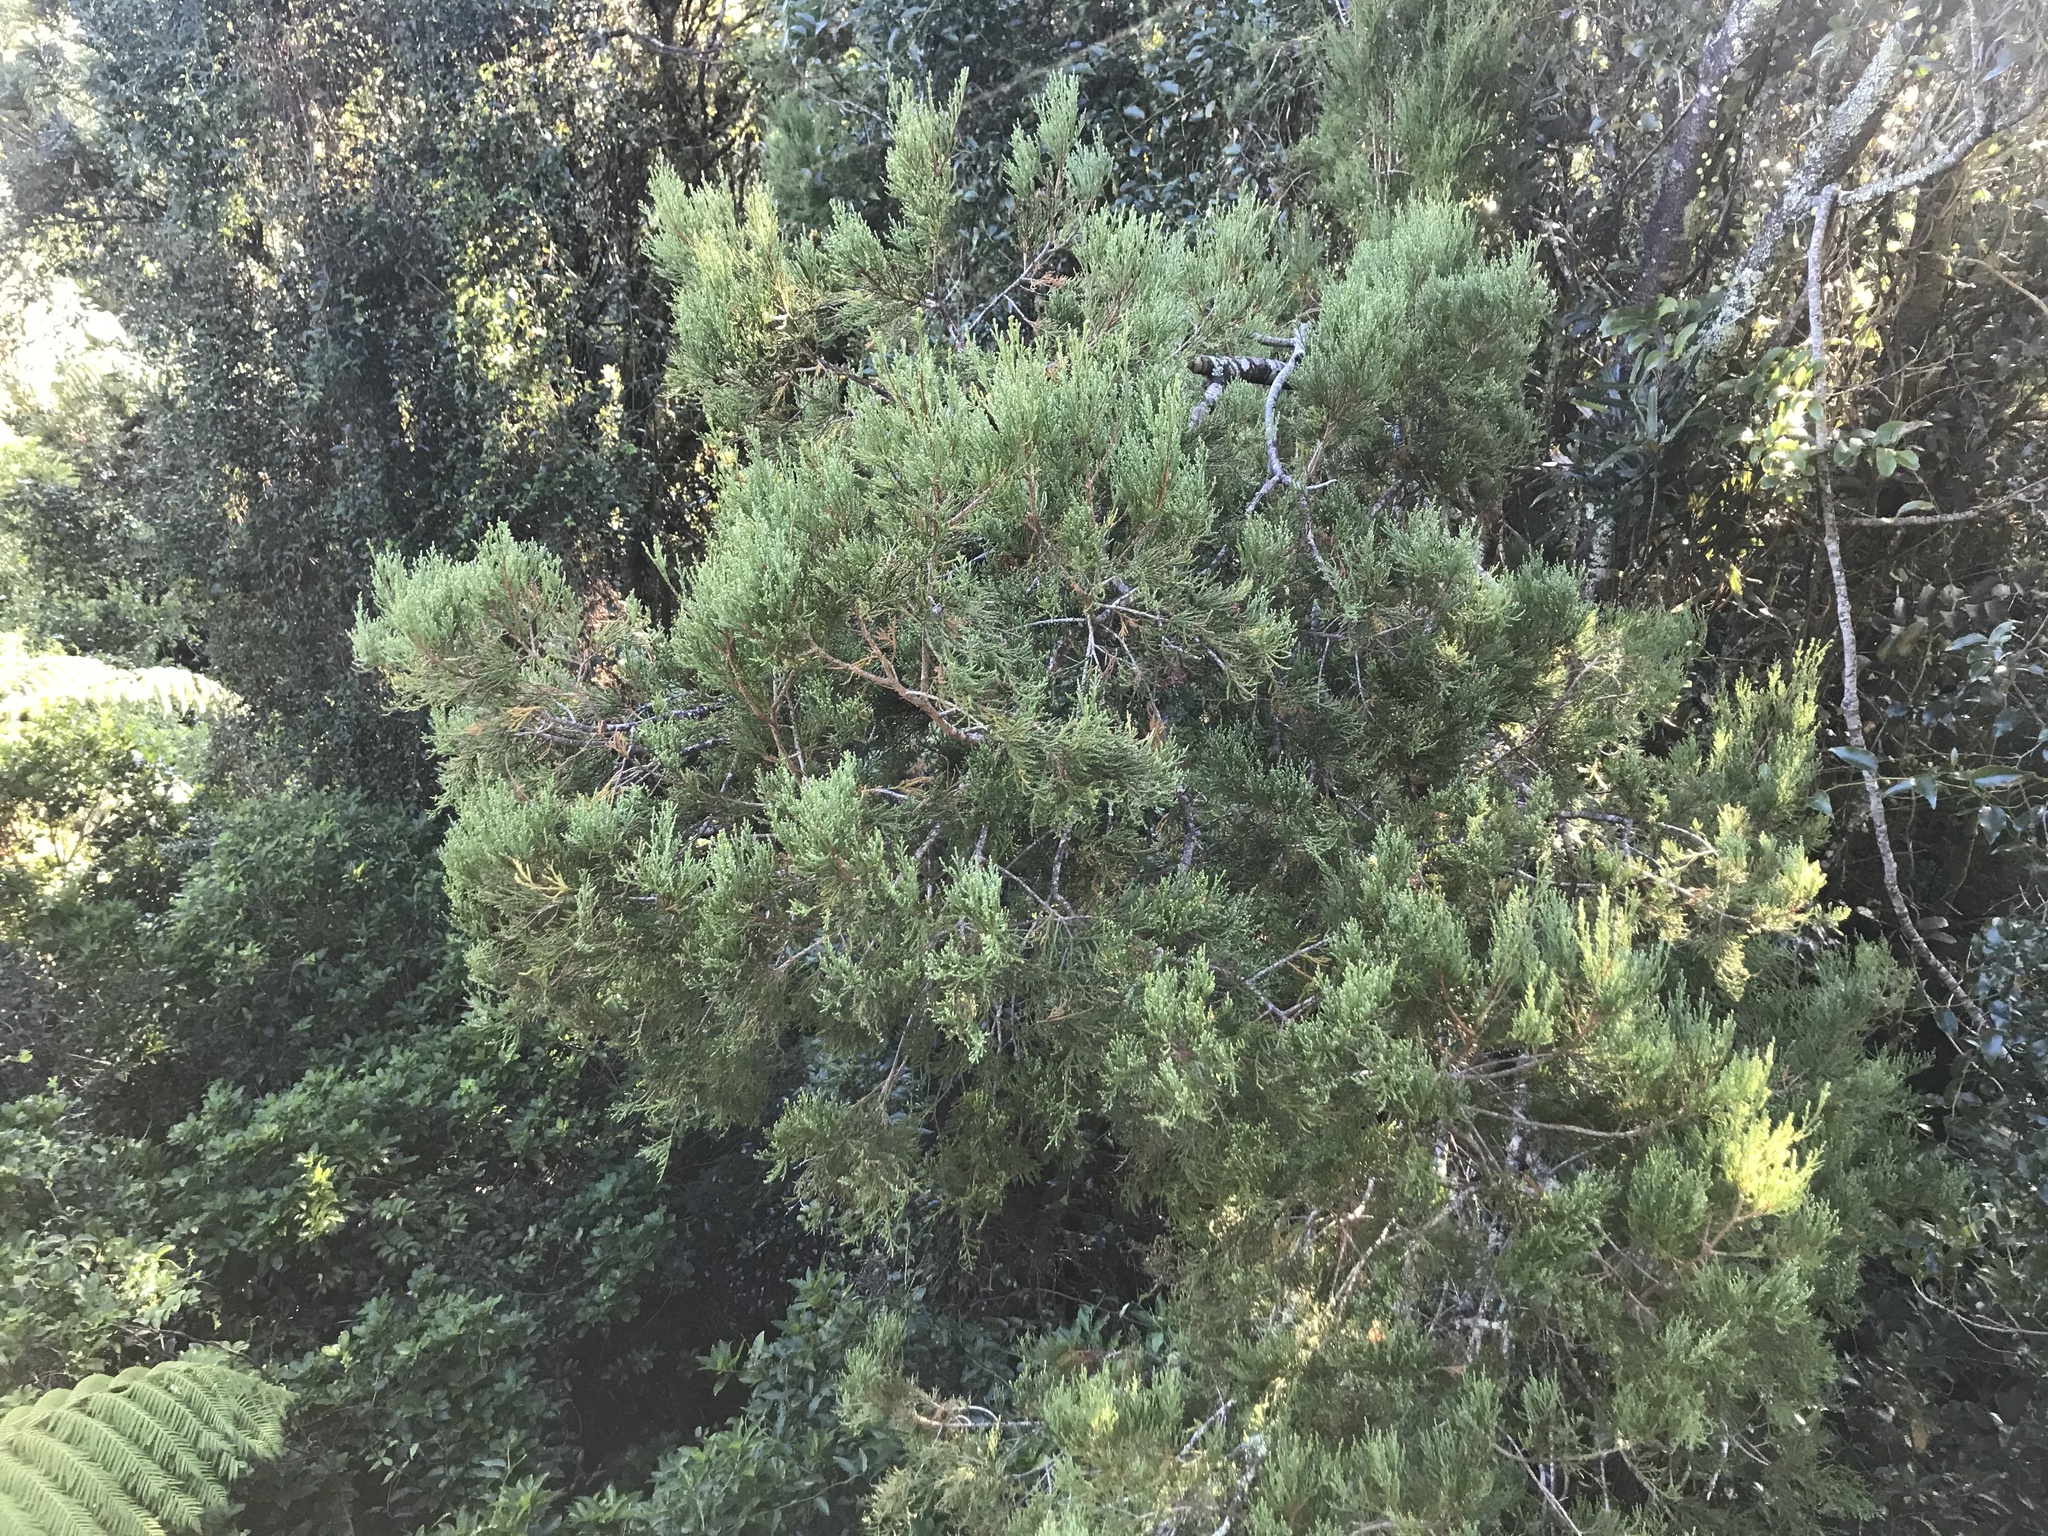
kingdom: Plantae
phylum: Tracheophyta
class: Pinopsida
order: Pinales
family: Podocarpaceae
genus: Dacrycarpus
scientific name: Dacrycarpus dacrydioides
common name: White pine
